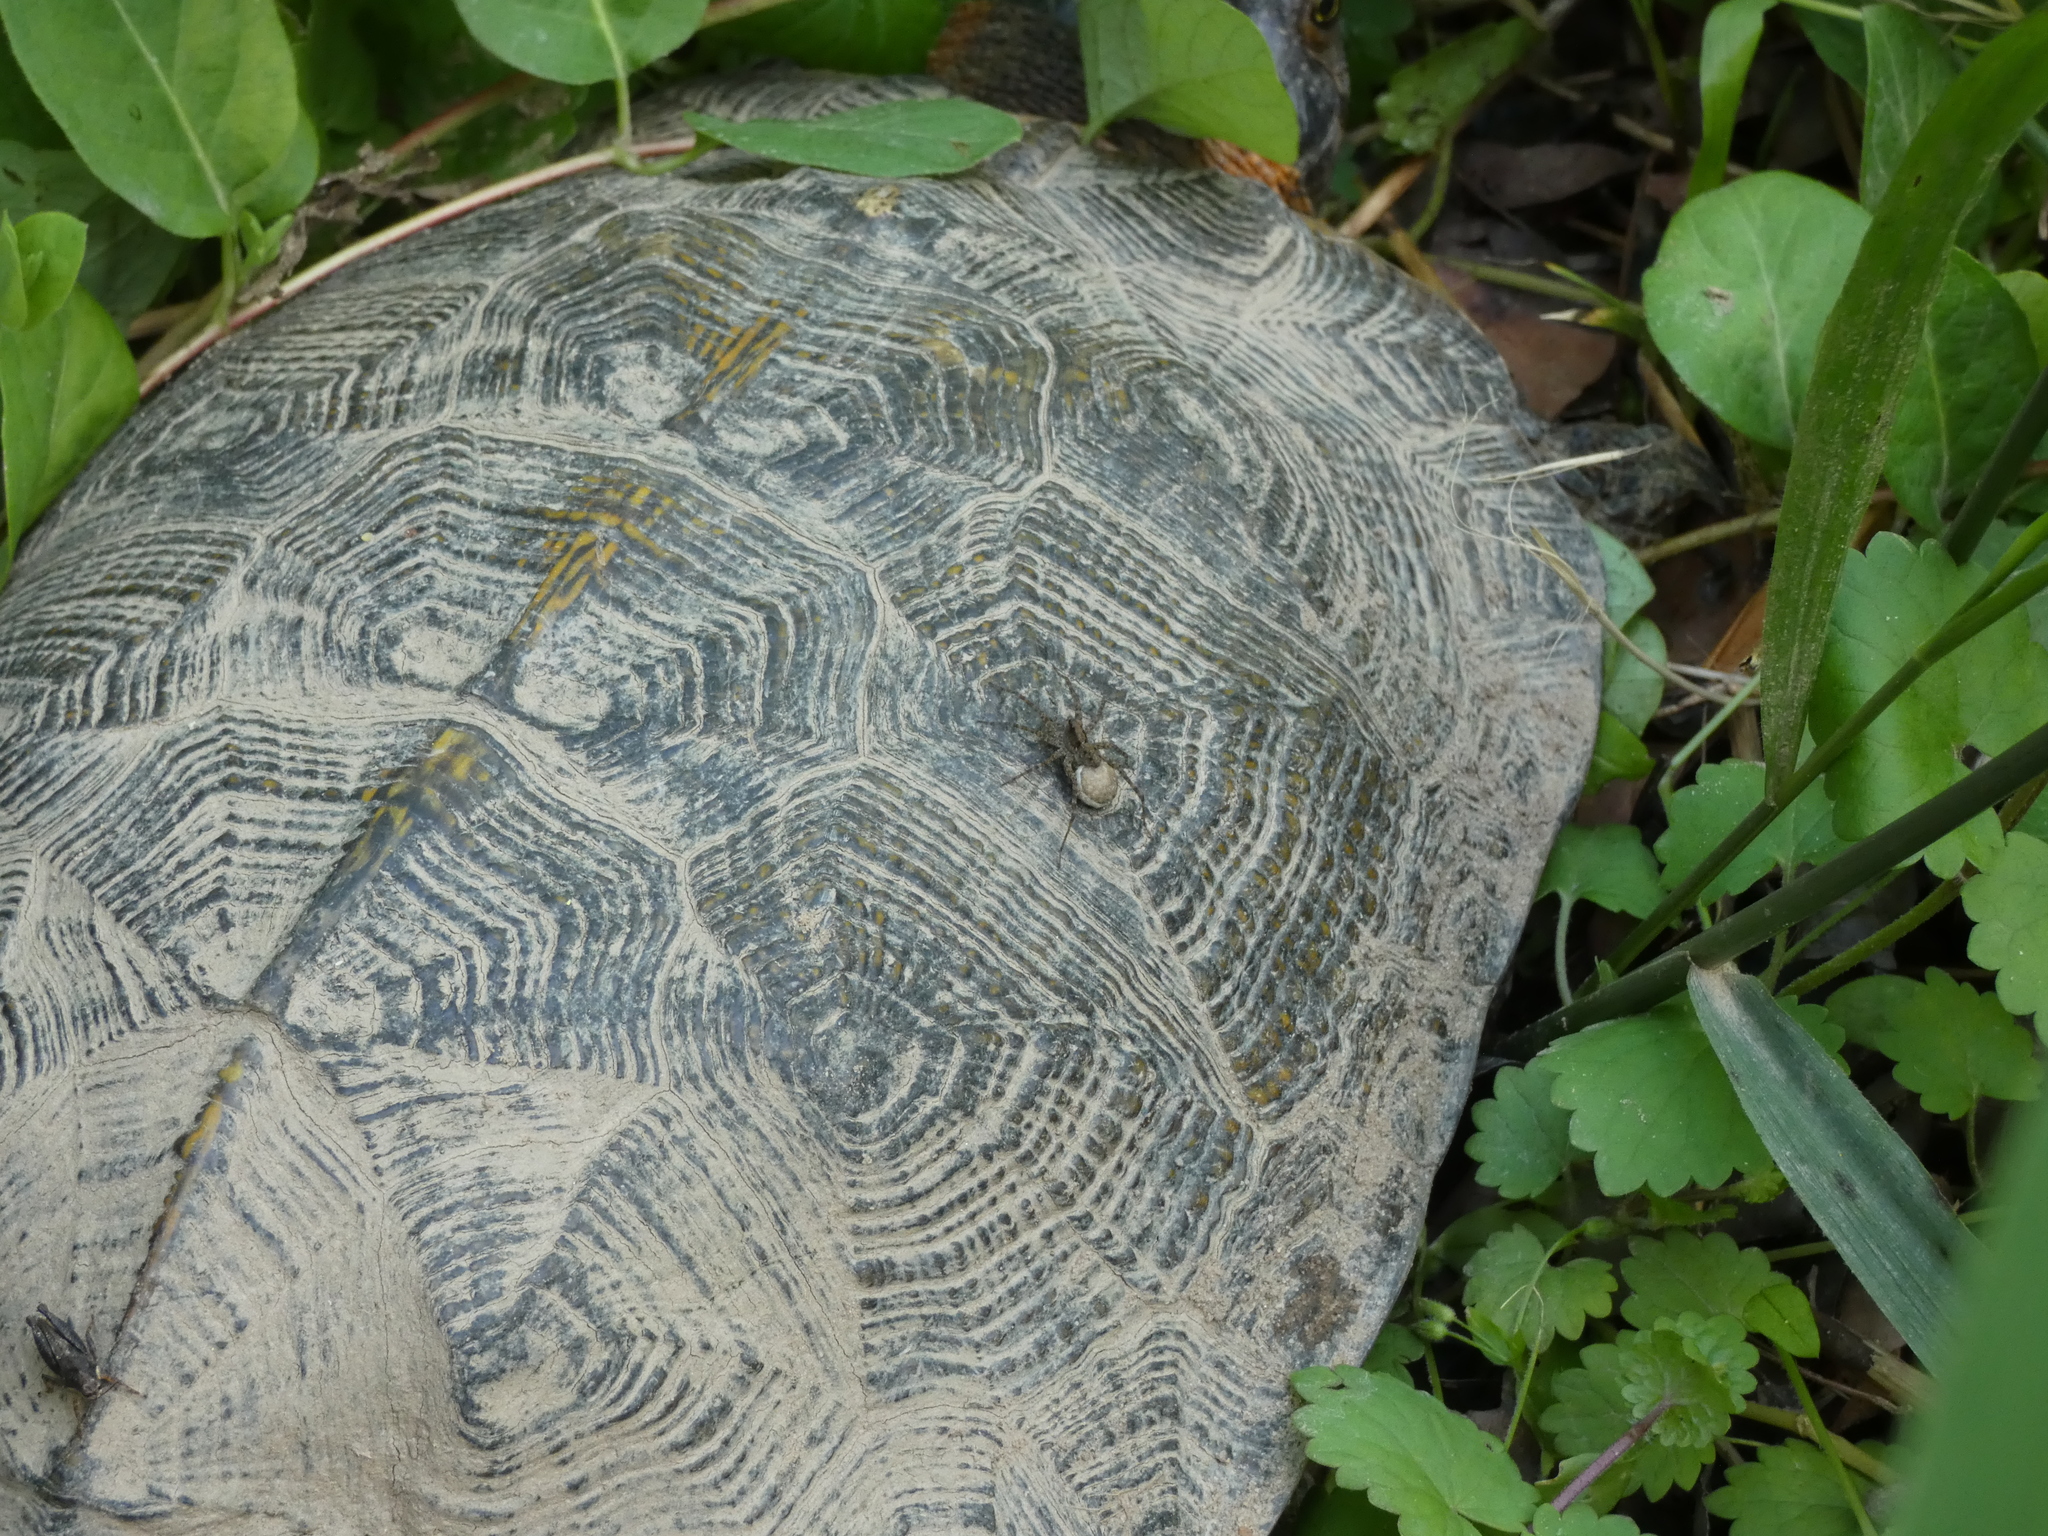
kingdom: Animalia
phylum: Chordata
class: Testudines
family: Emydidae
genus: Glyptemys
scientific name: Glyptemys insculpta
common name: Wood turtle
